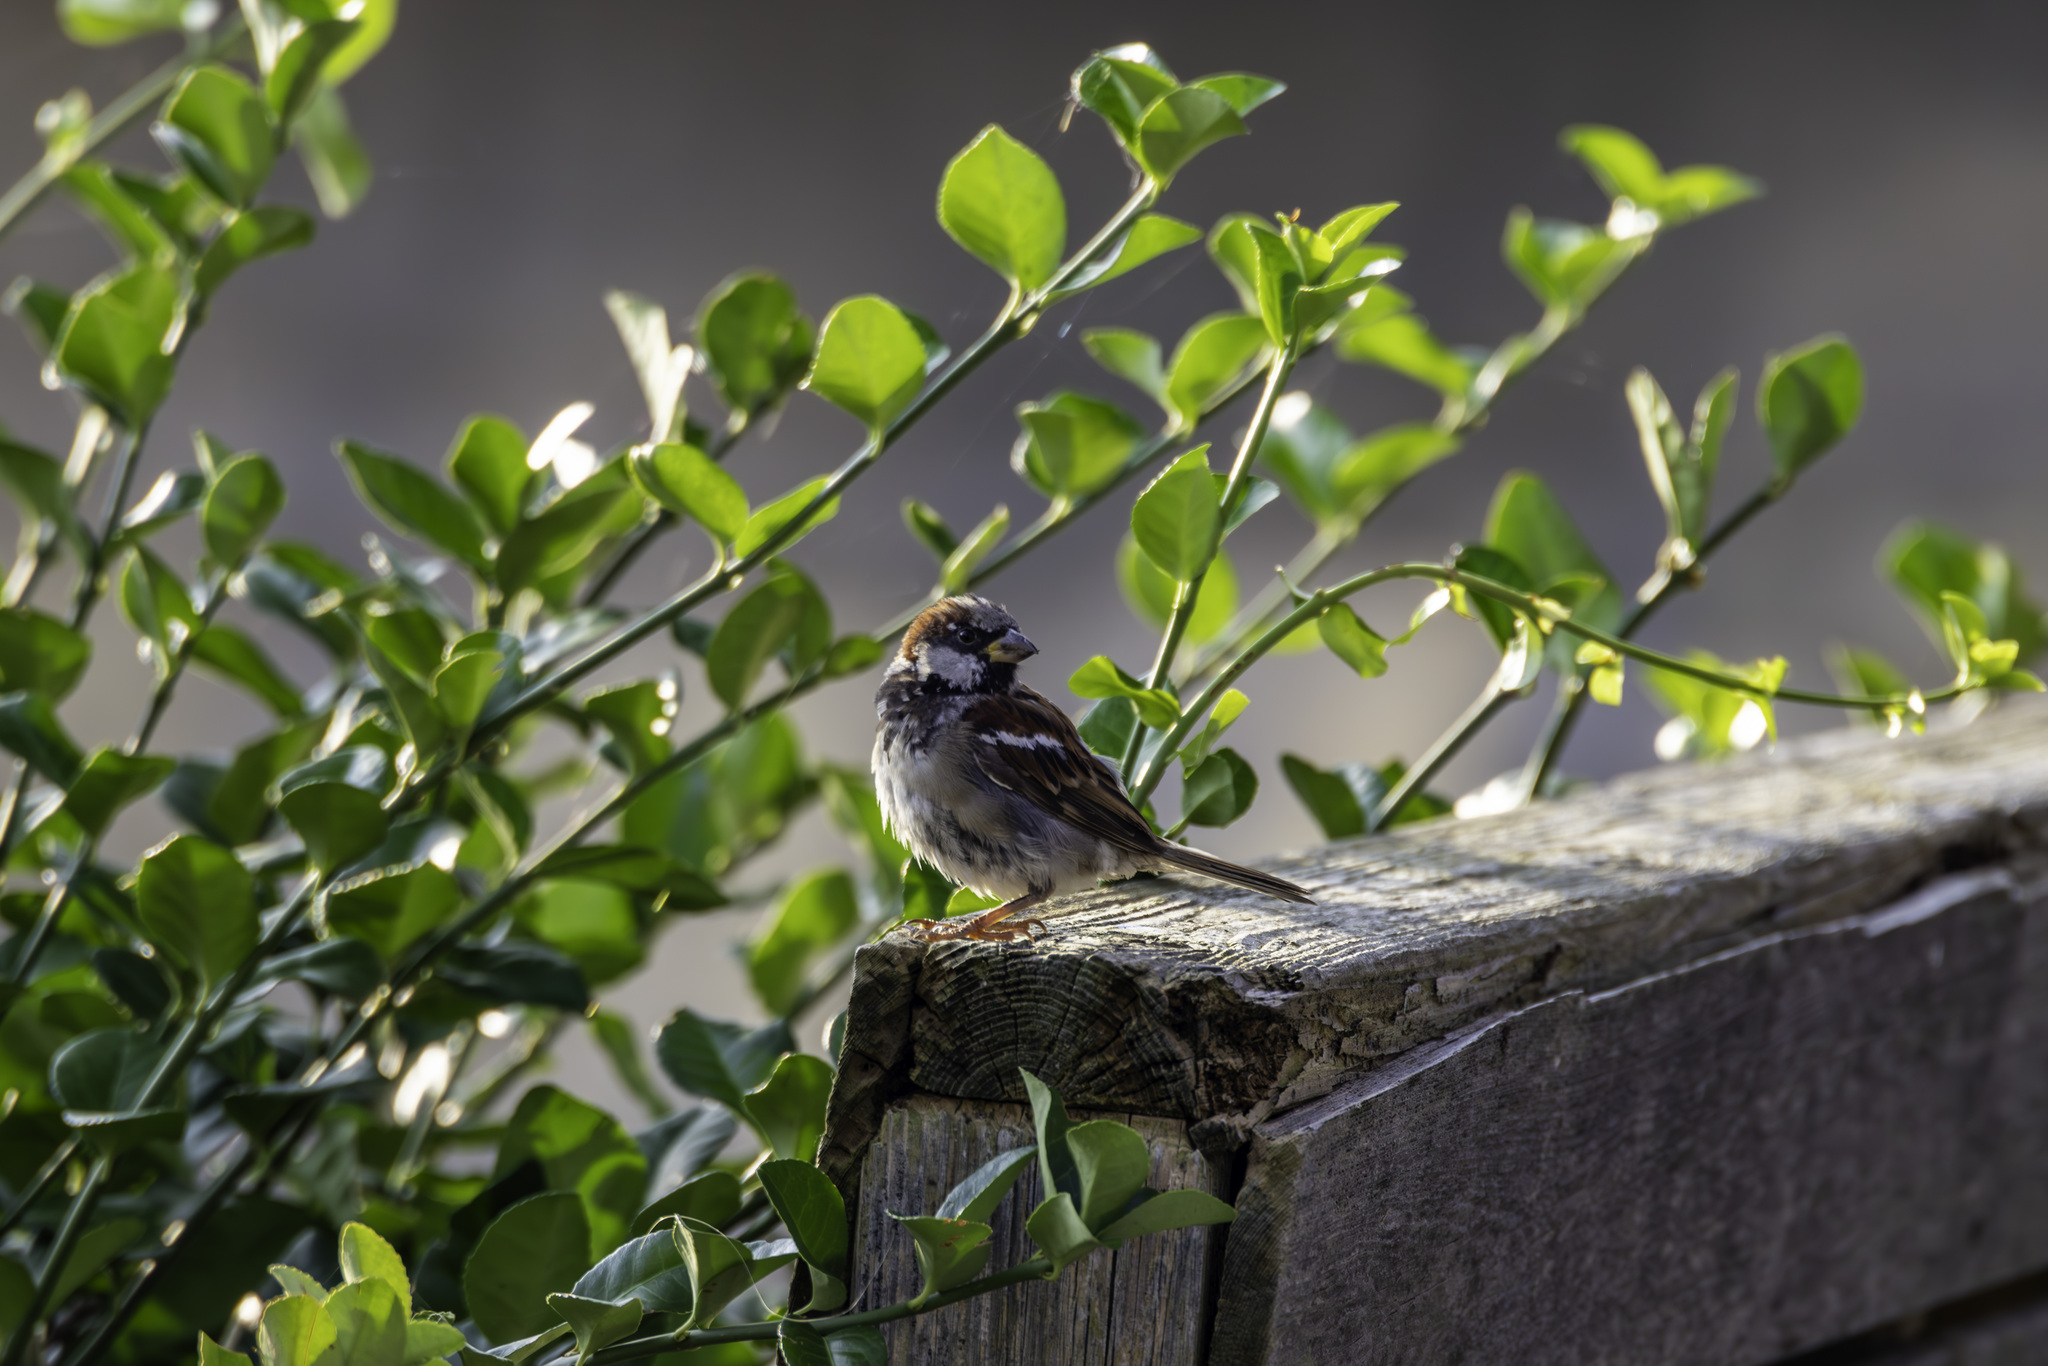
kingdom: Animalia
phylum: Chordata
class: Aves
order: Passeriformes
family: Passeridae
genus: Passer
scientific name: Passer domesticus
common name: House sparrow
